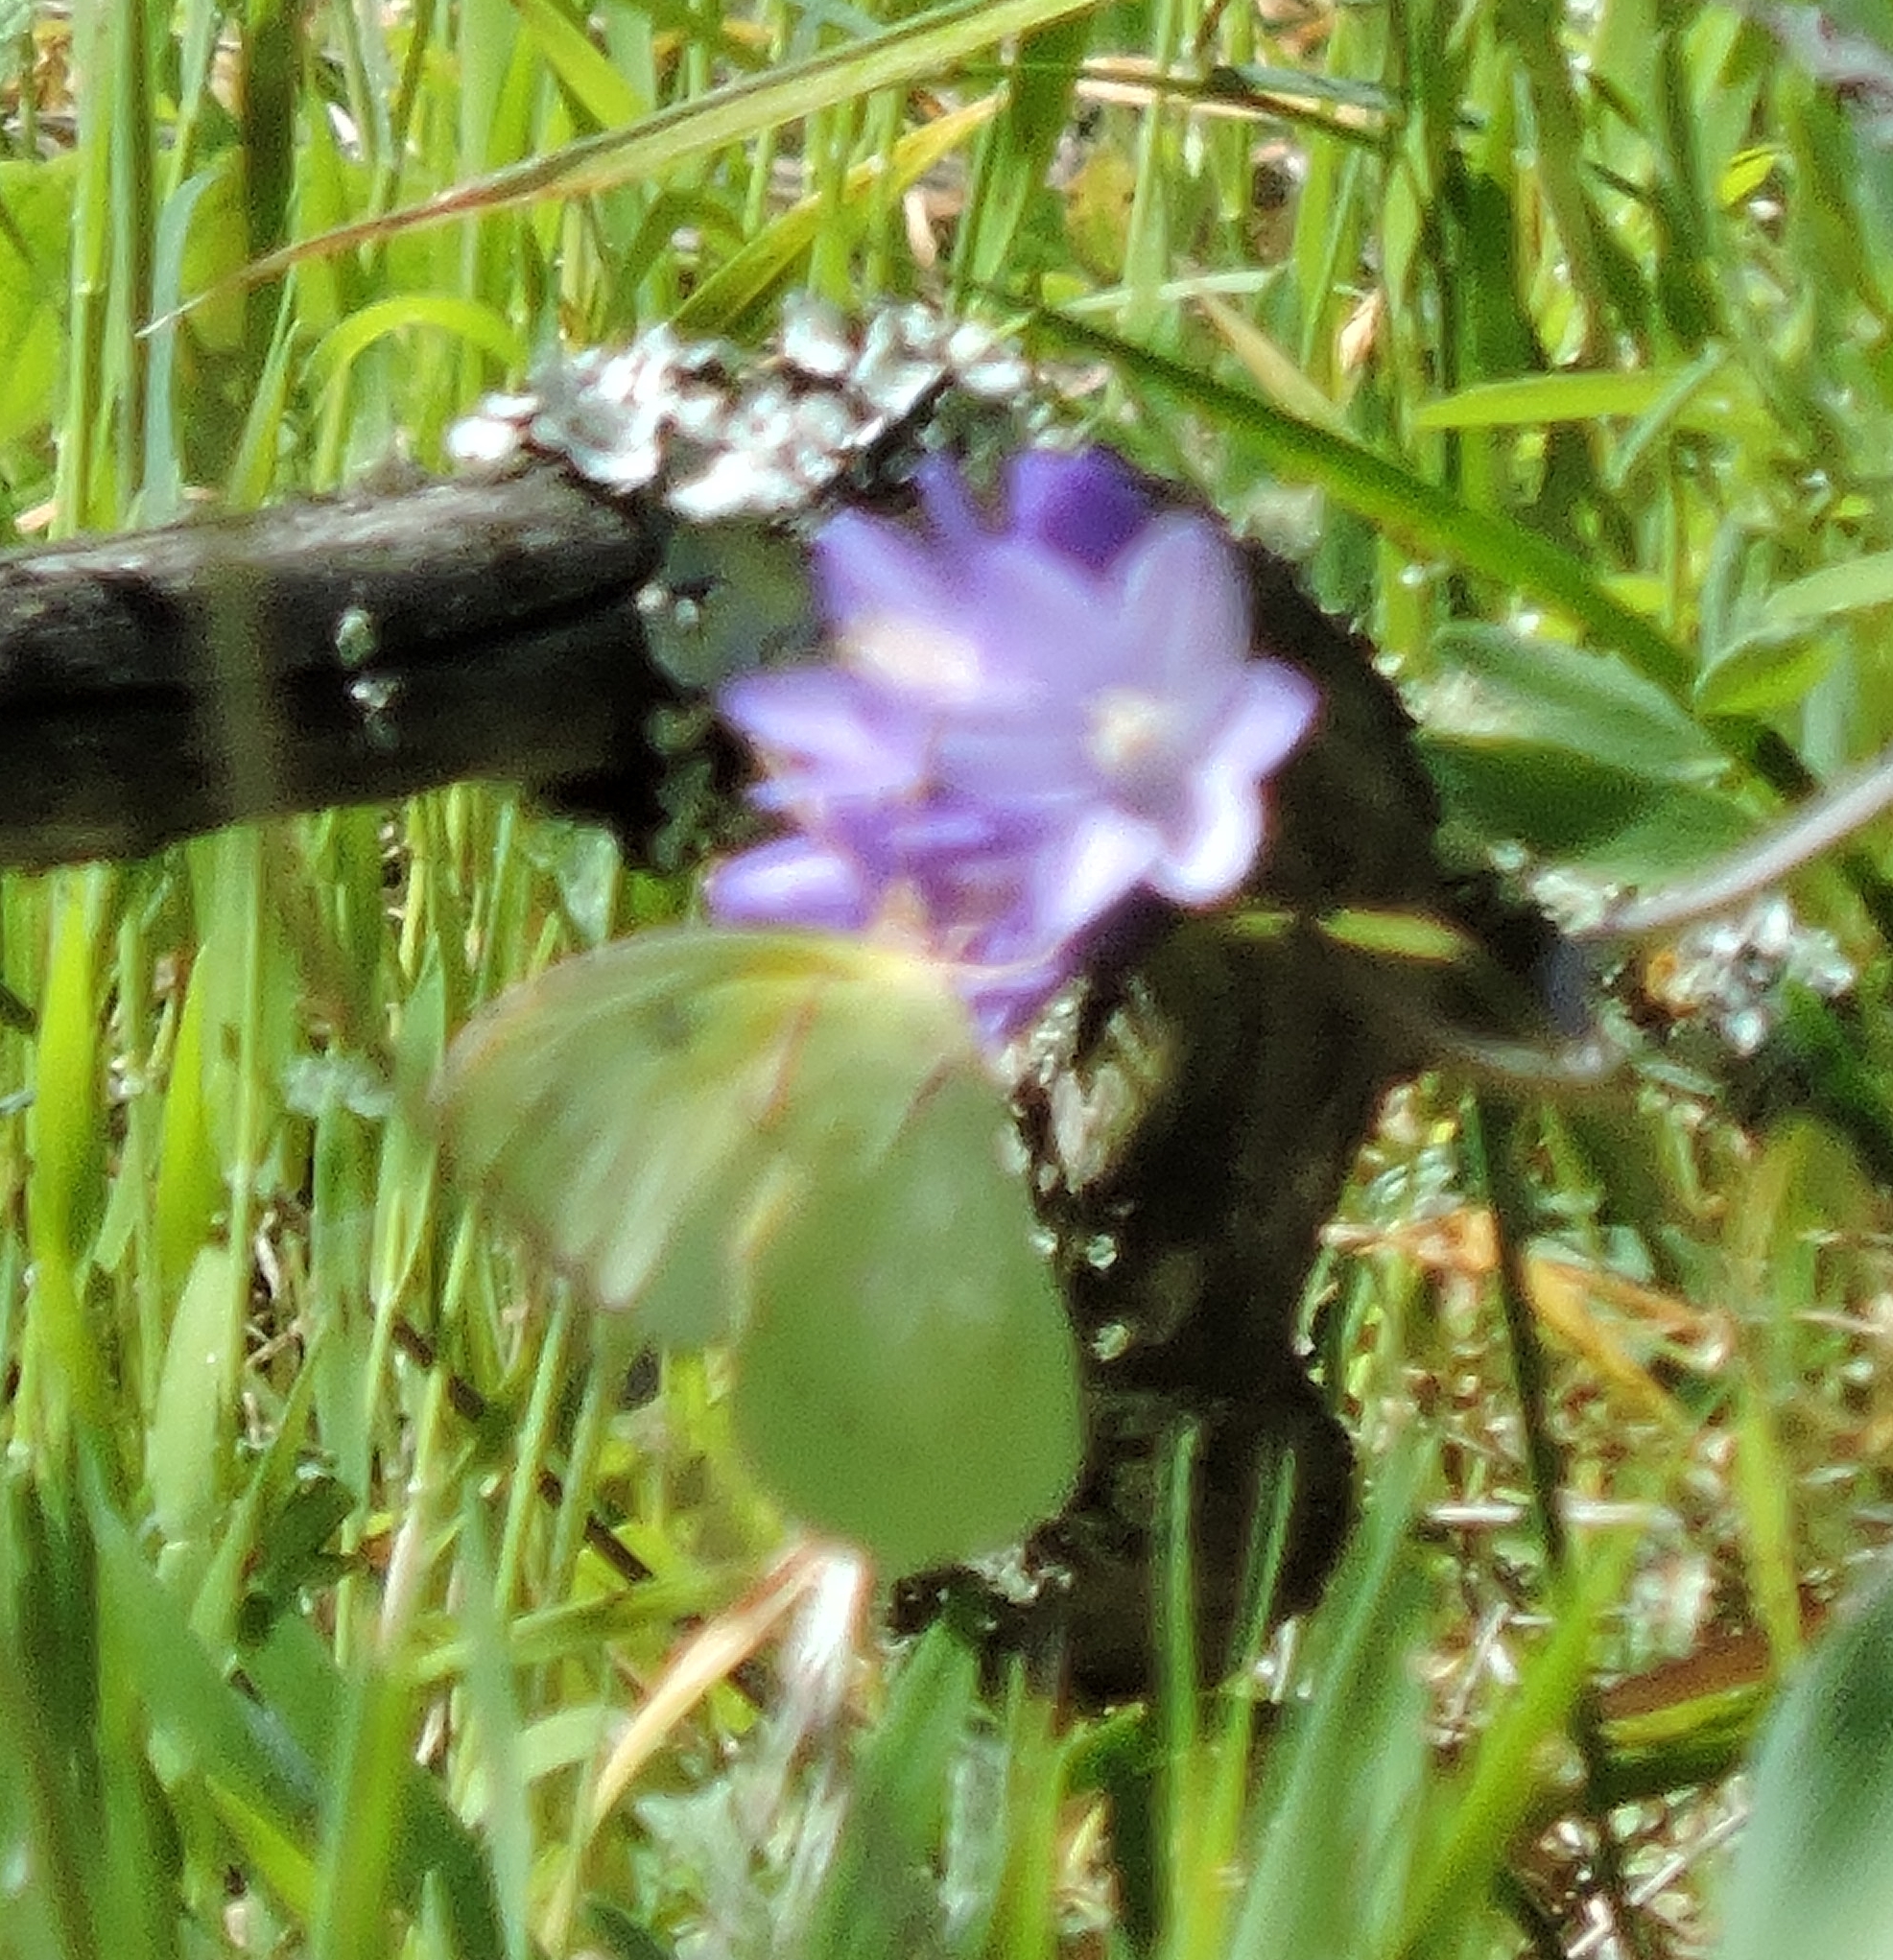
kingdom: Animalia
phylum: Arthropoda
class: Insecta
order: Lepidoptera
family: Pieridae
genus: Zerene
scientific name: Zerene eurydice
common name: California dogface
